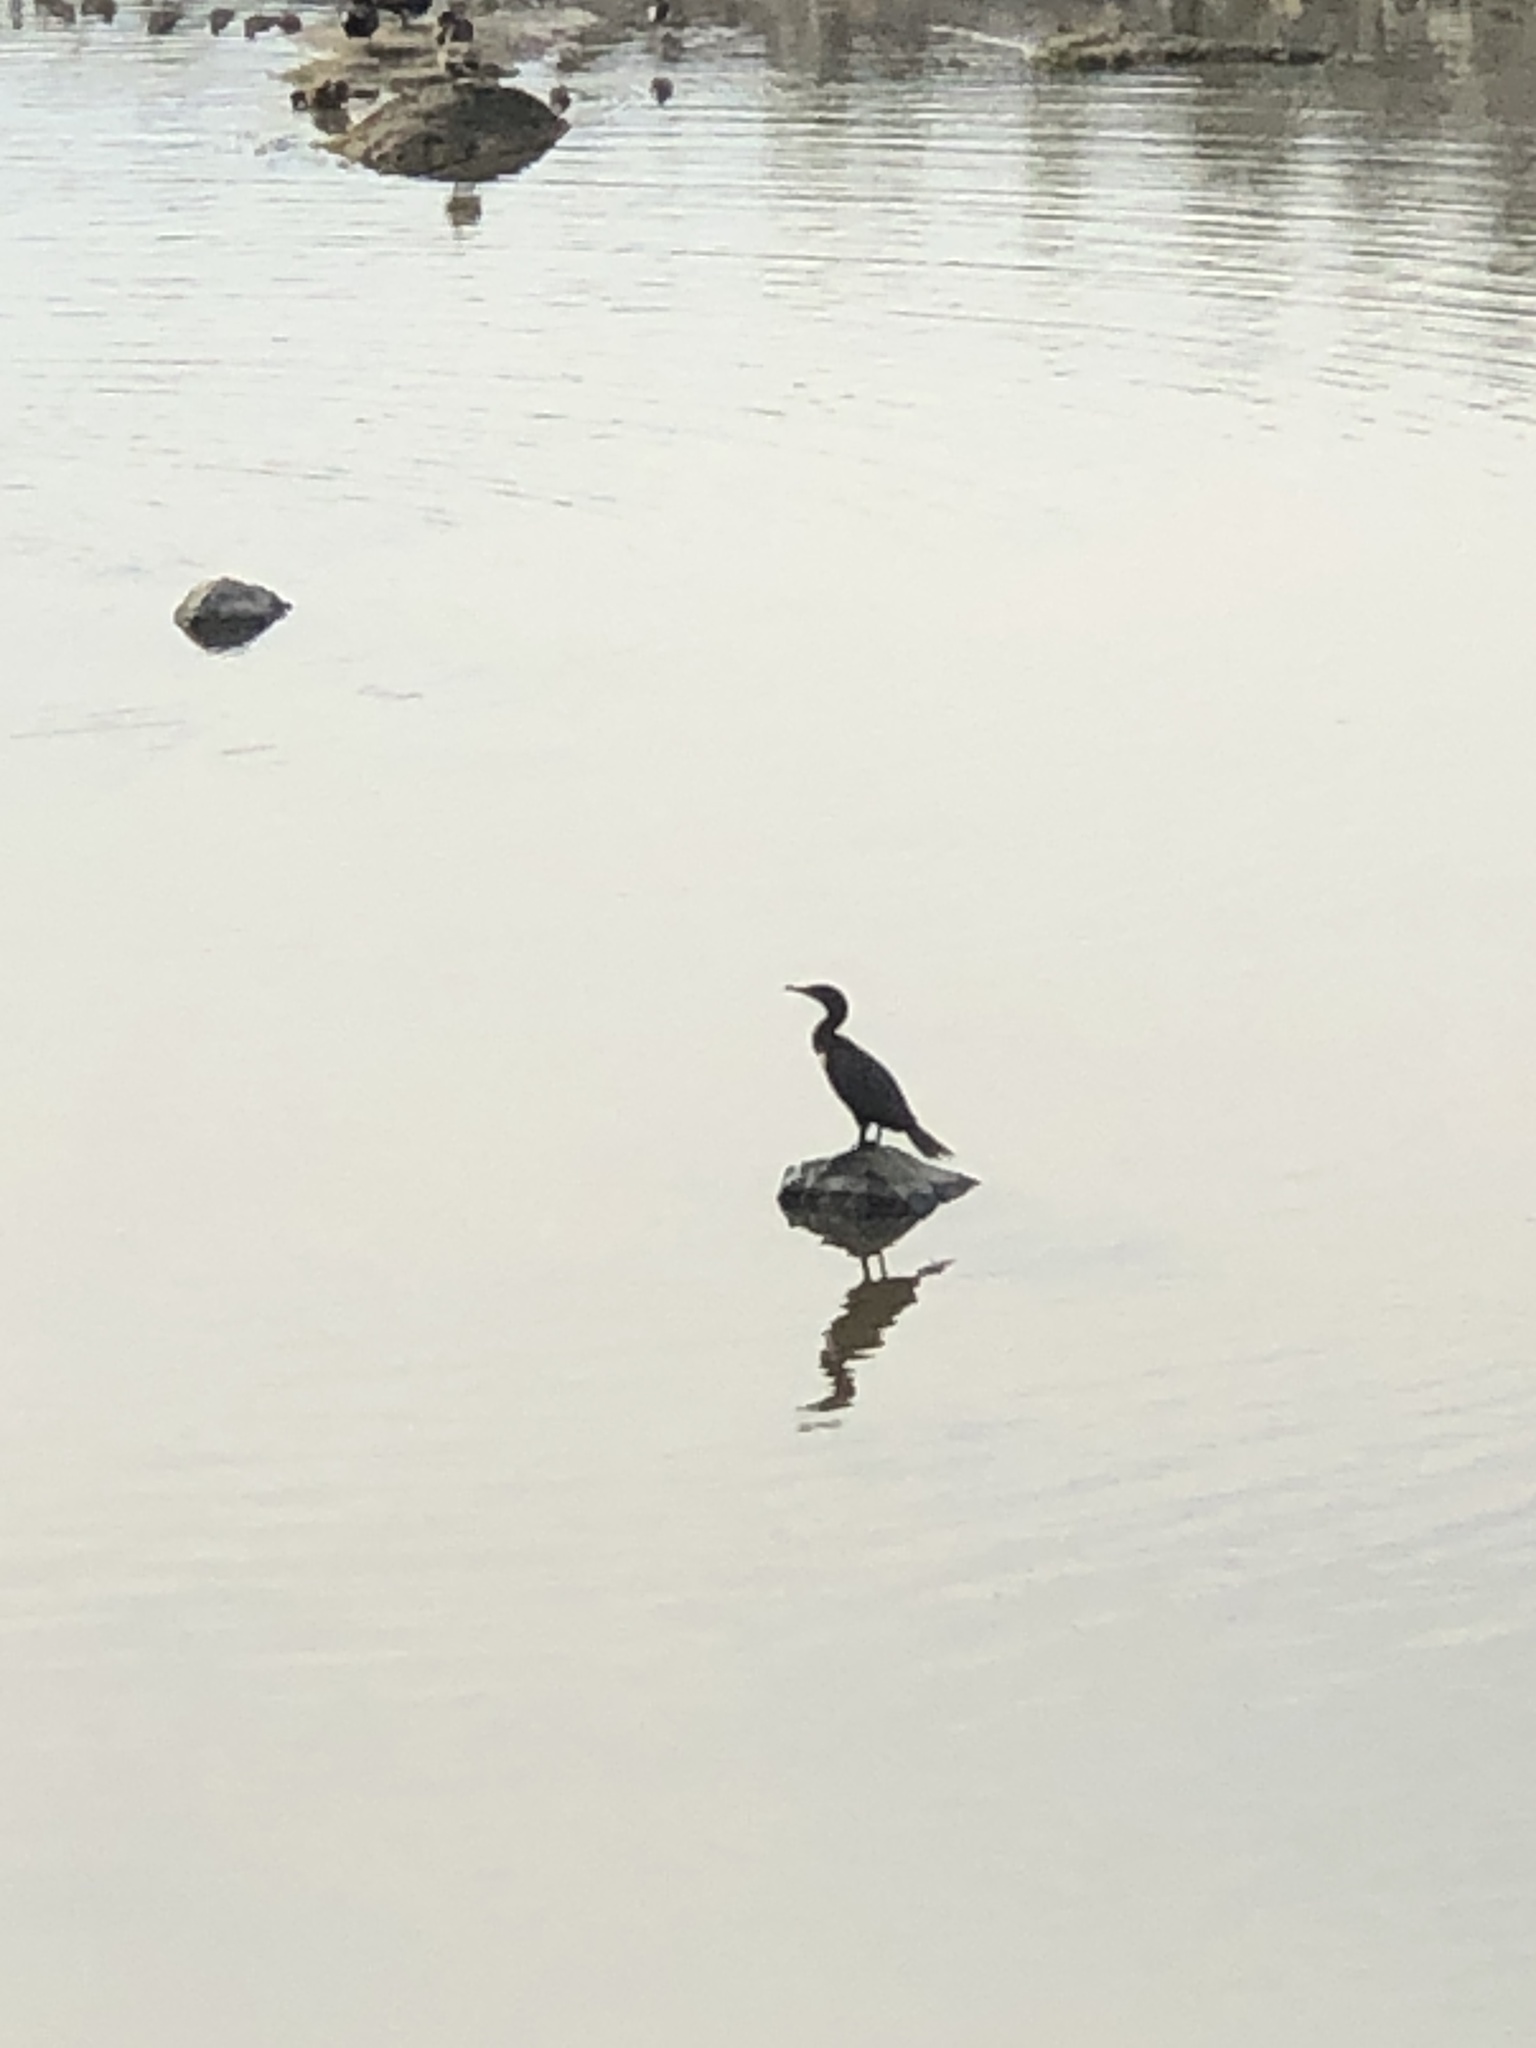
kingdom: Animalia
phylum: Chordata
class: Aves
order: Suliformes
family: Phalacrocoracidae
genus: Phalacrocorax
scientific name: Phalacrocorax auritus
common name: Double-crested cormorant
